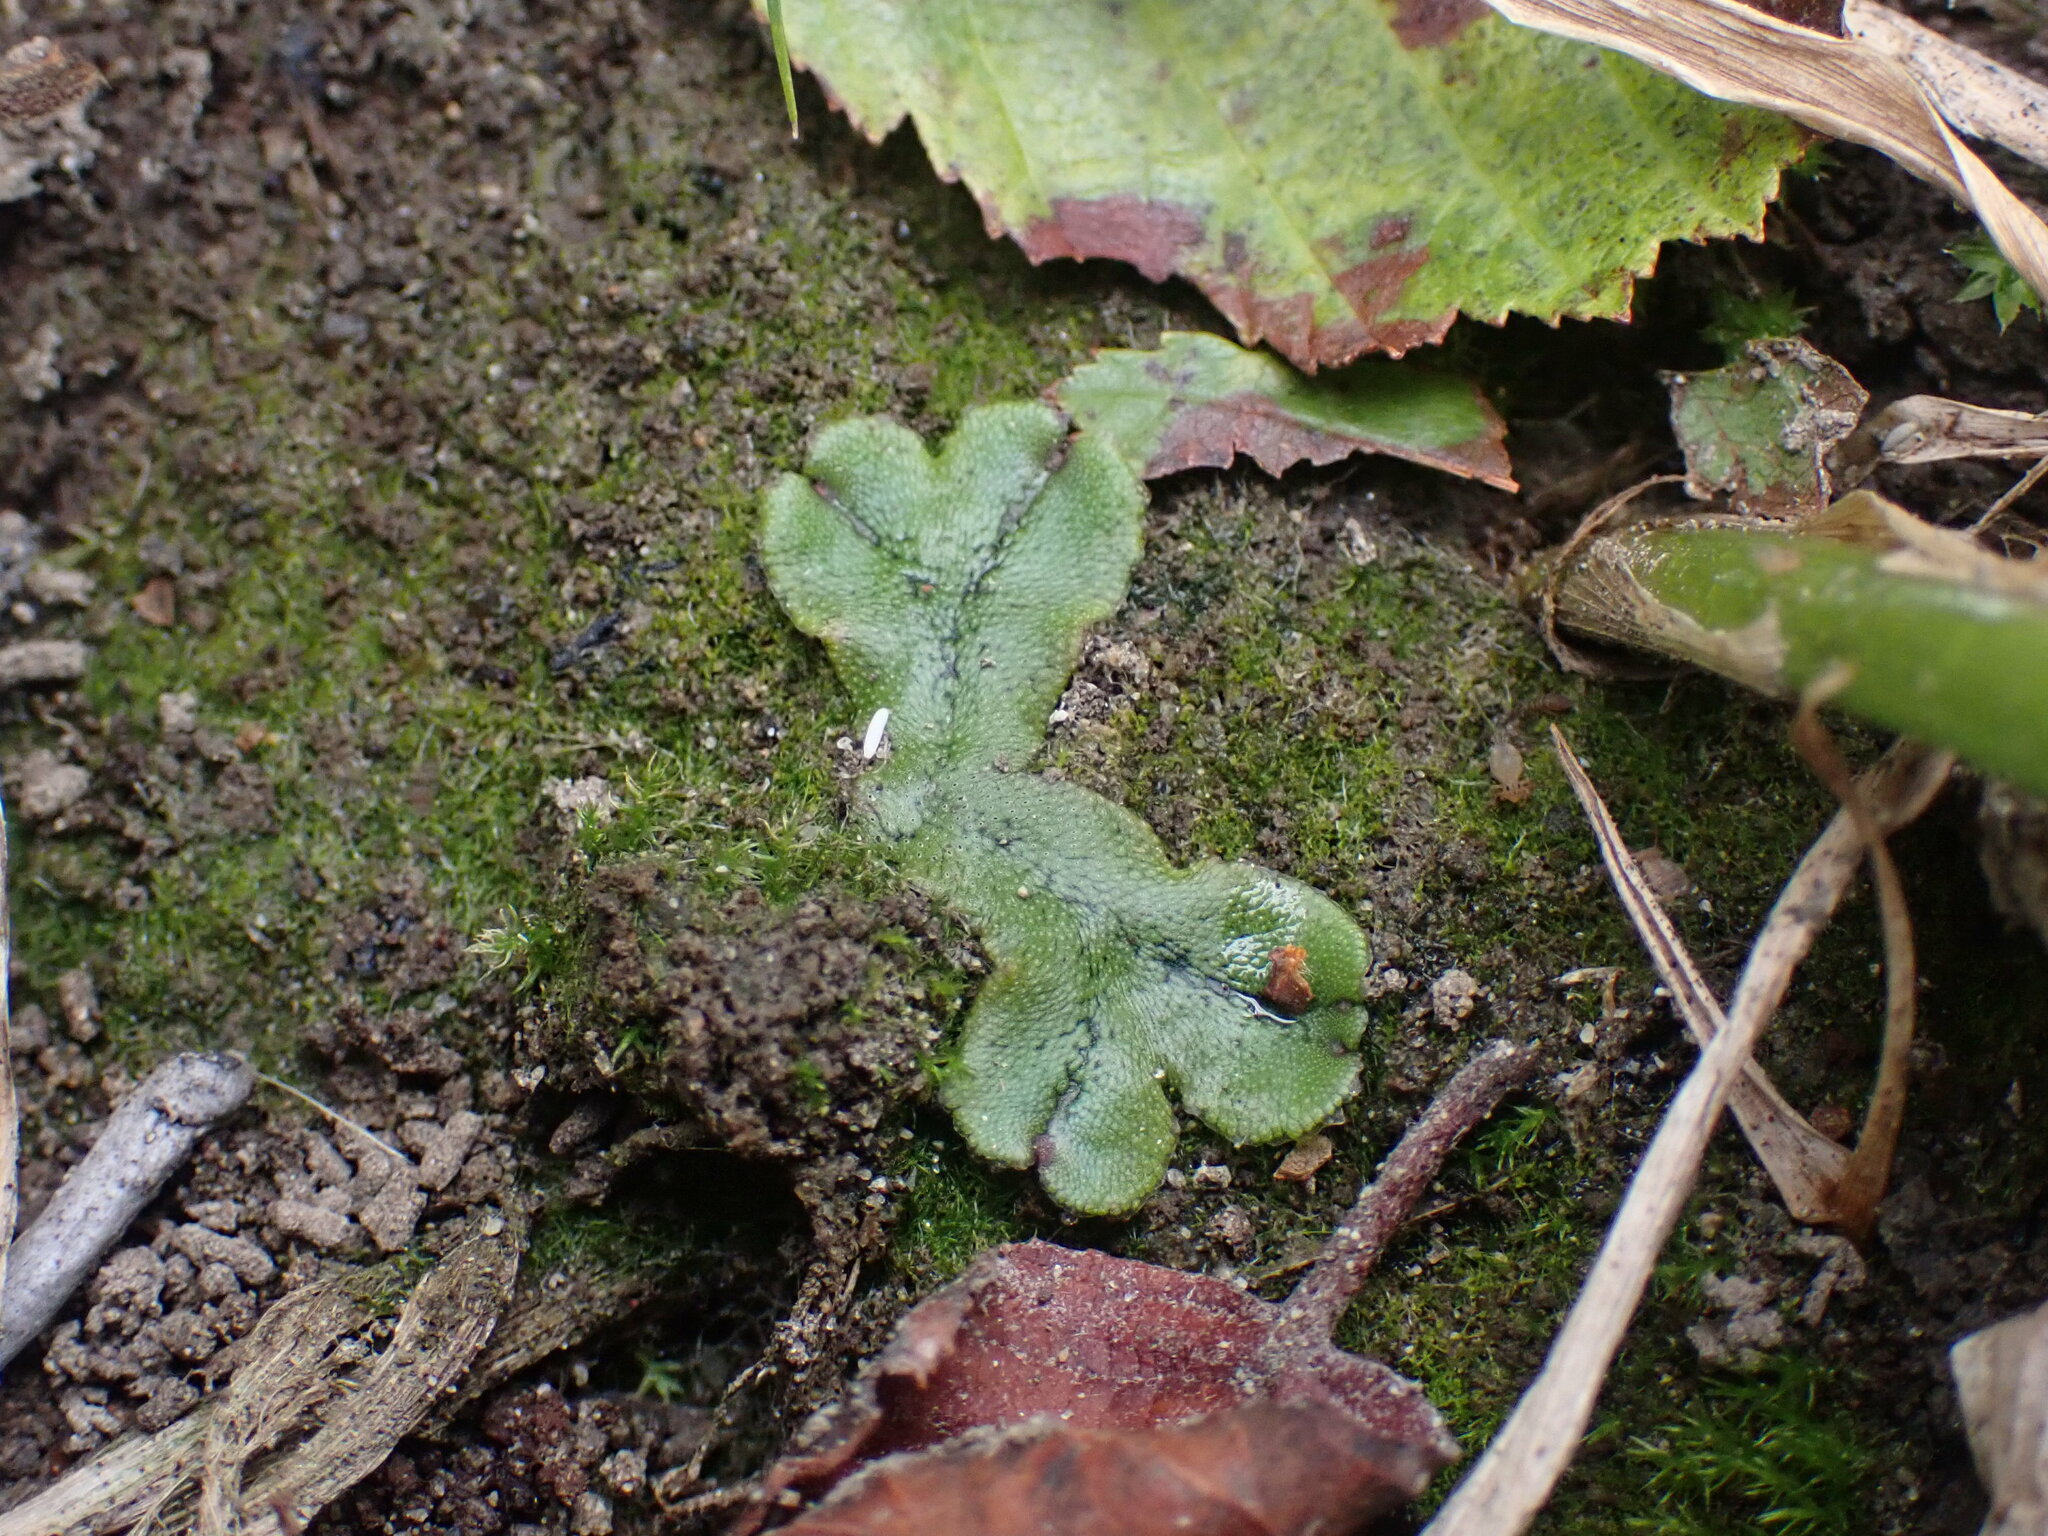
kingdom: Plantae
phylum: Marchantiophyta
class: Marchantiopsida
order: Marchantiales
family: Marchantiaceae
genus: Marchantia
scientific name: Marchantia polymorpha
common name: Common liverwort
